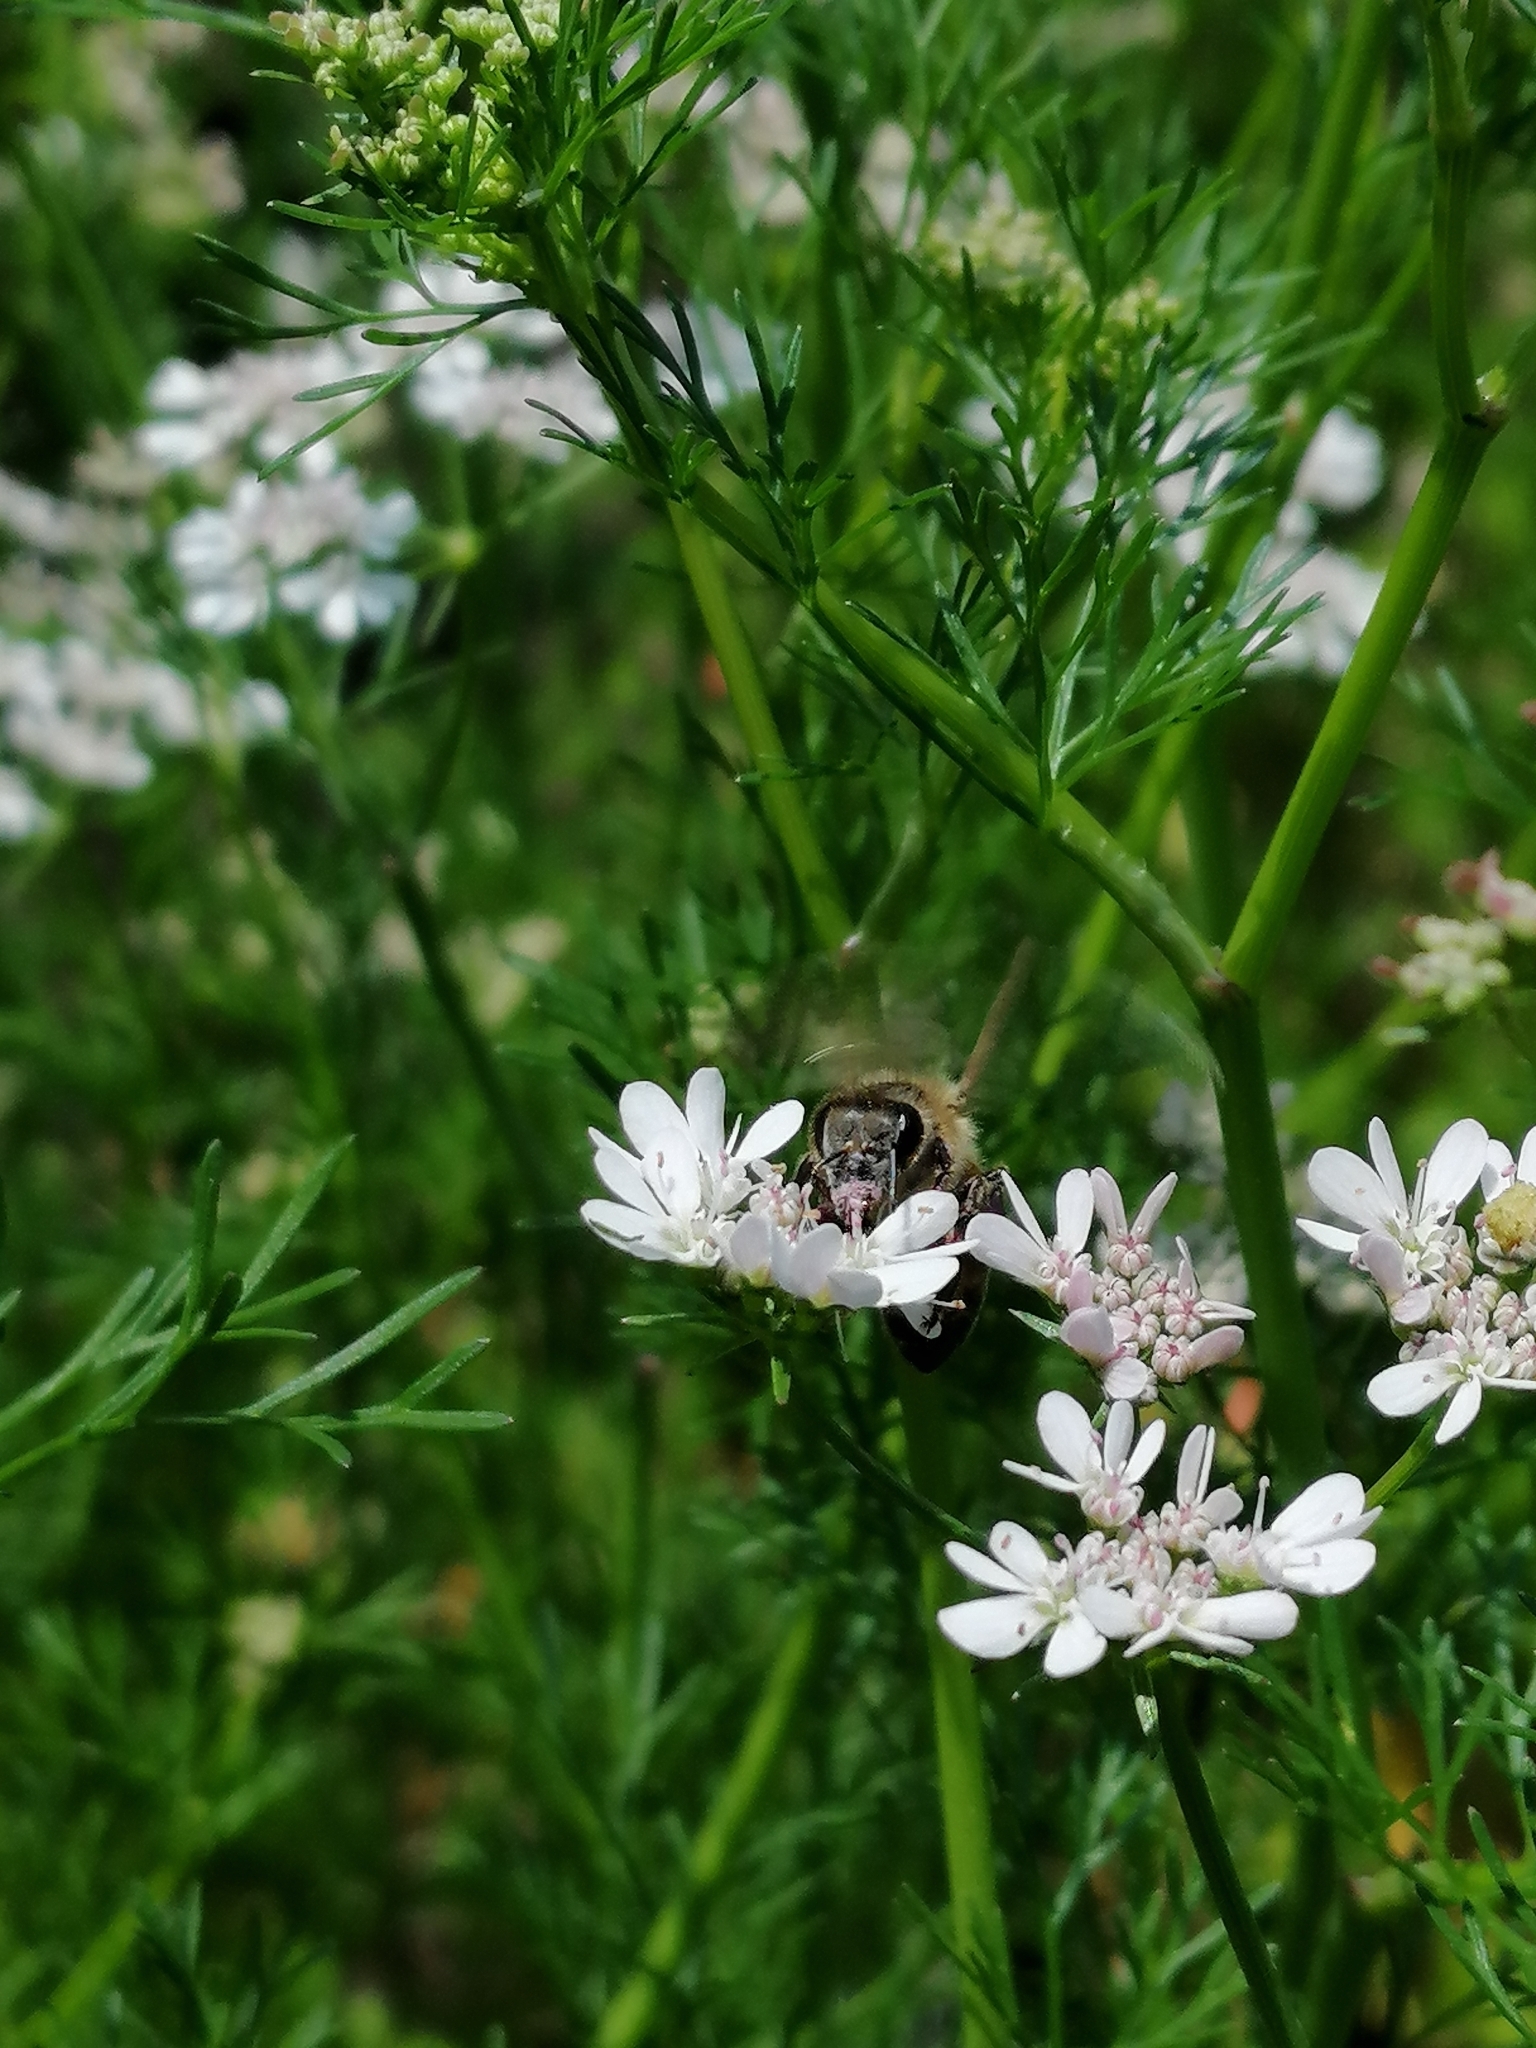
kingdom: Animalia
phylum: Arthropoda
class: Insecta
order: Hymenoptera
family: Apidae
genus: Apis
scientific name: Apis mellifera
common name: Honey bee
